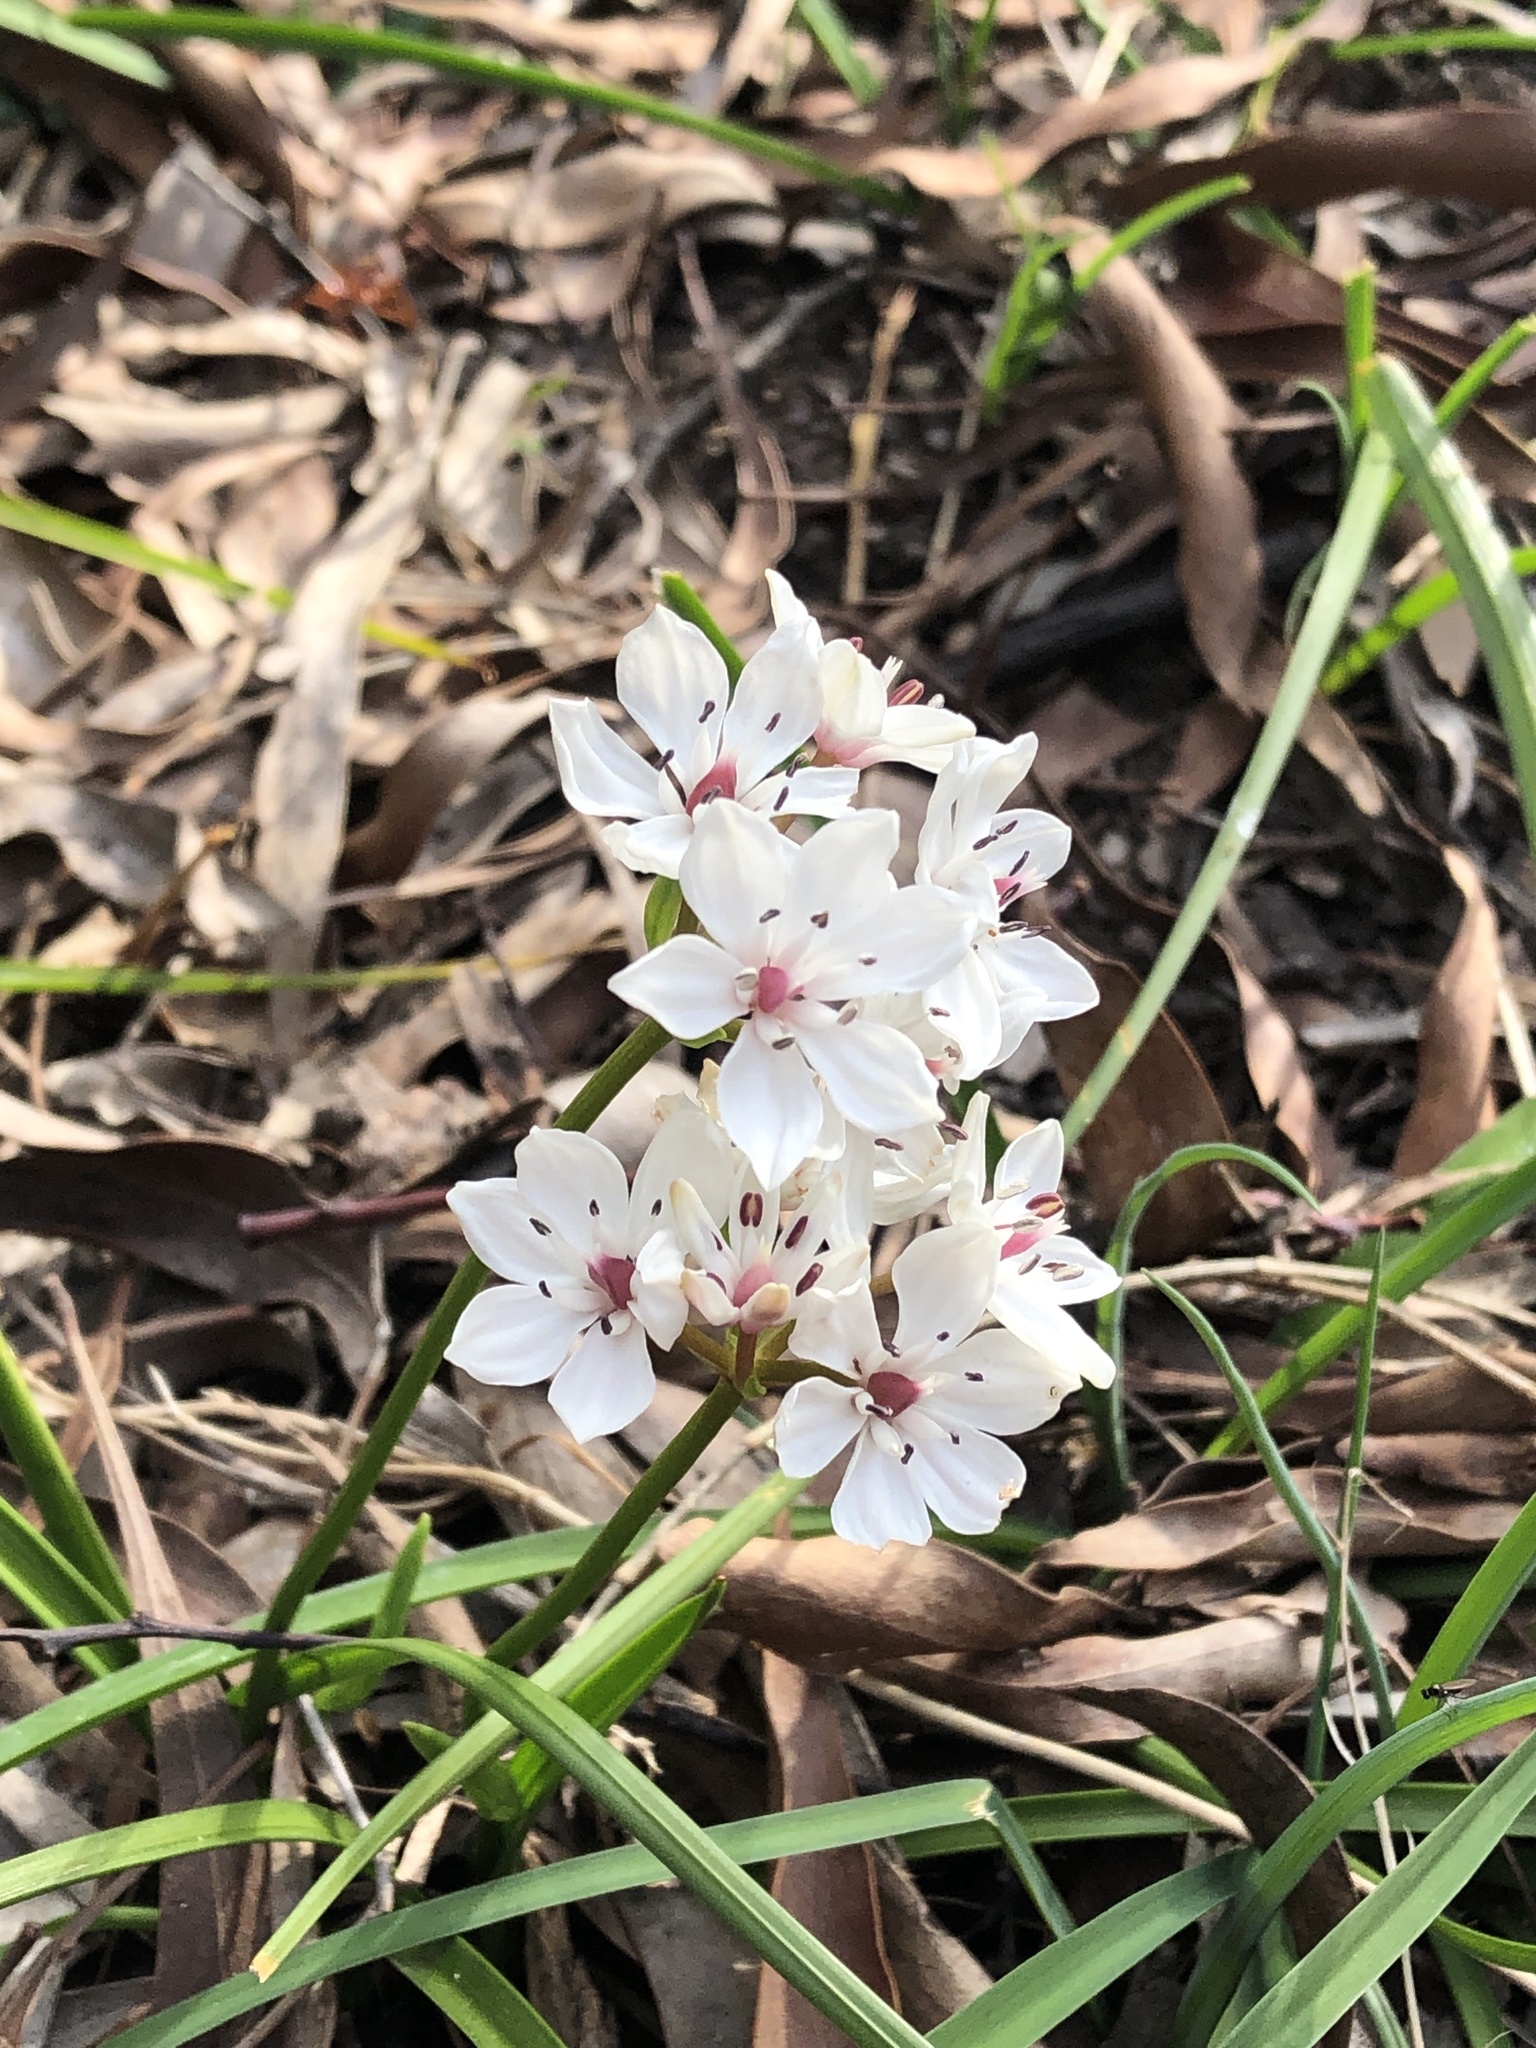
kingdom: Plantae
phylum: Tracheophyta
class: Liliopsida
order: Liliales
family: Colchicaceae
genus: Burchardia
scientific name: Burchardia umbellata
